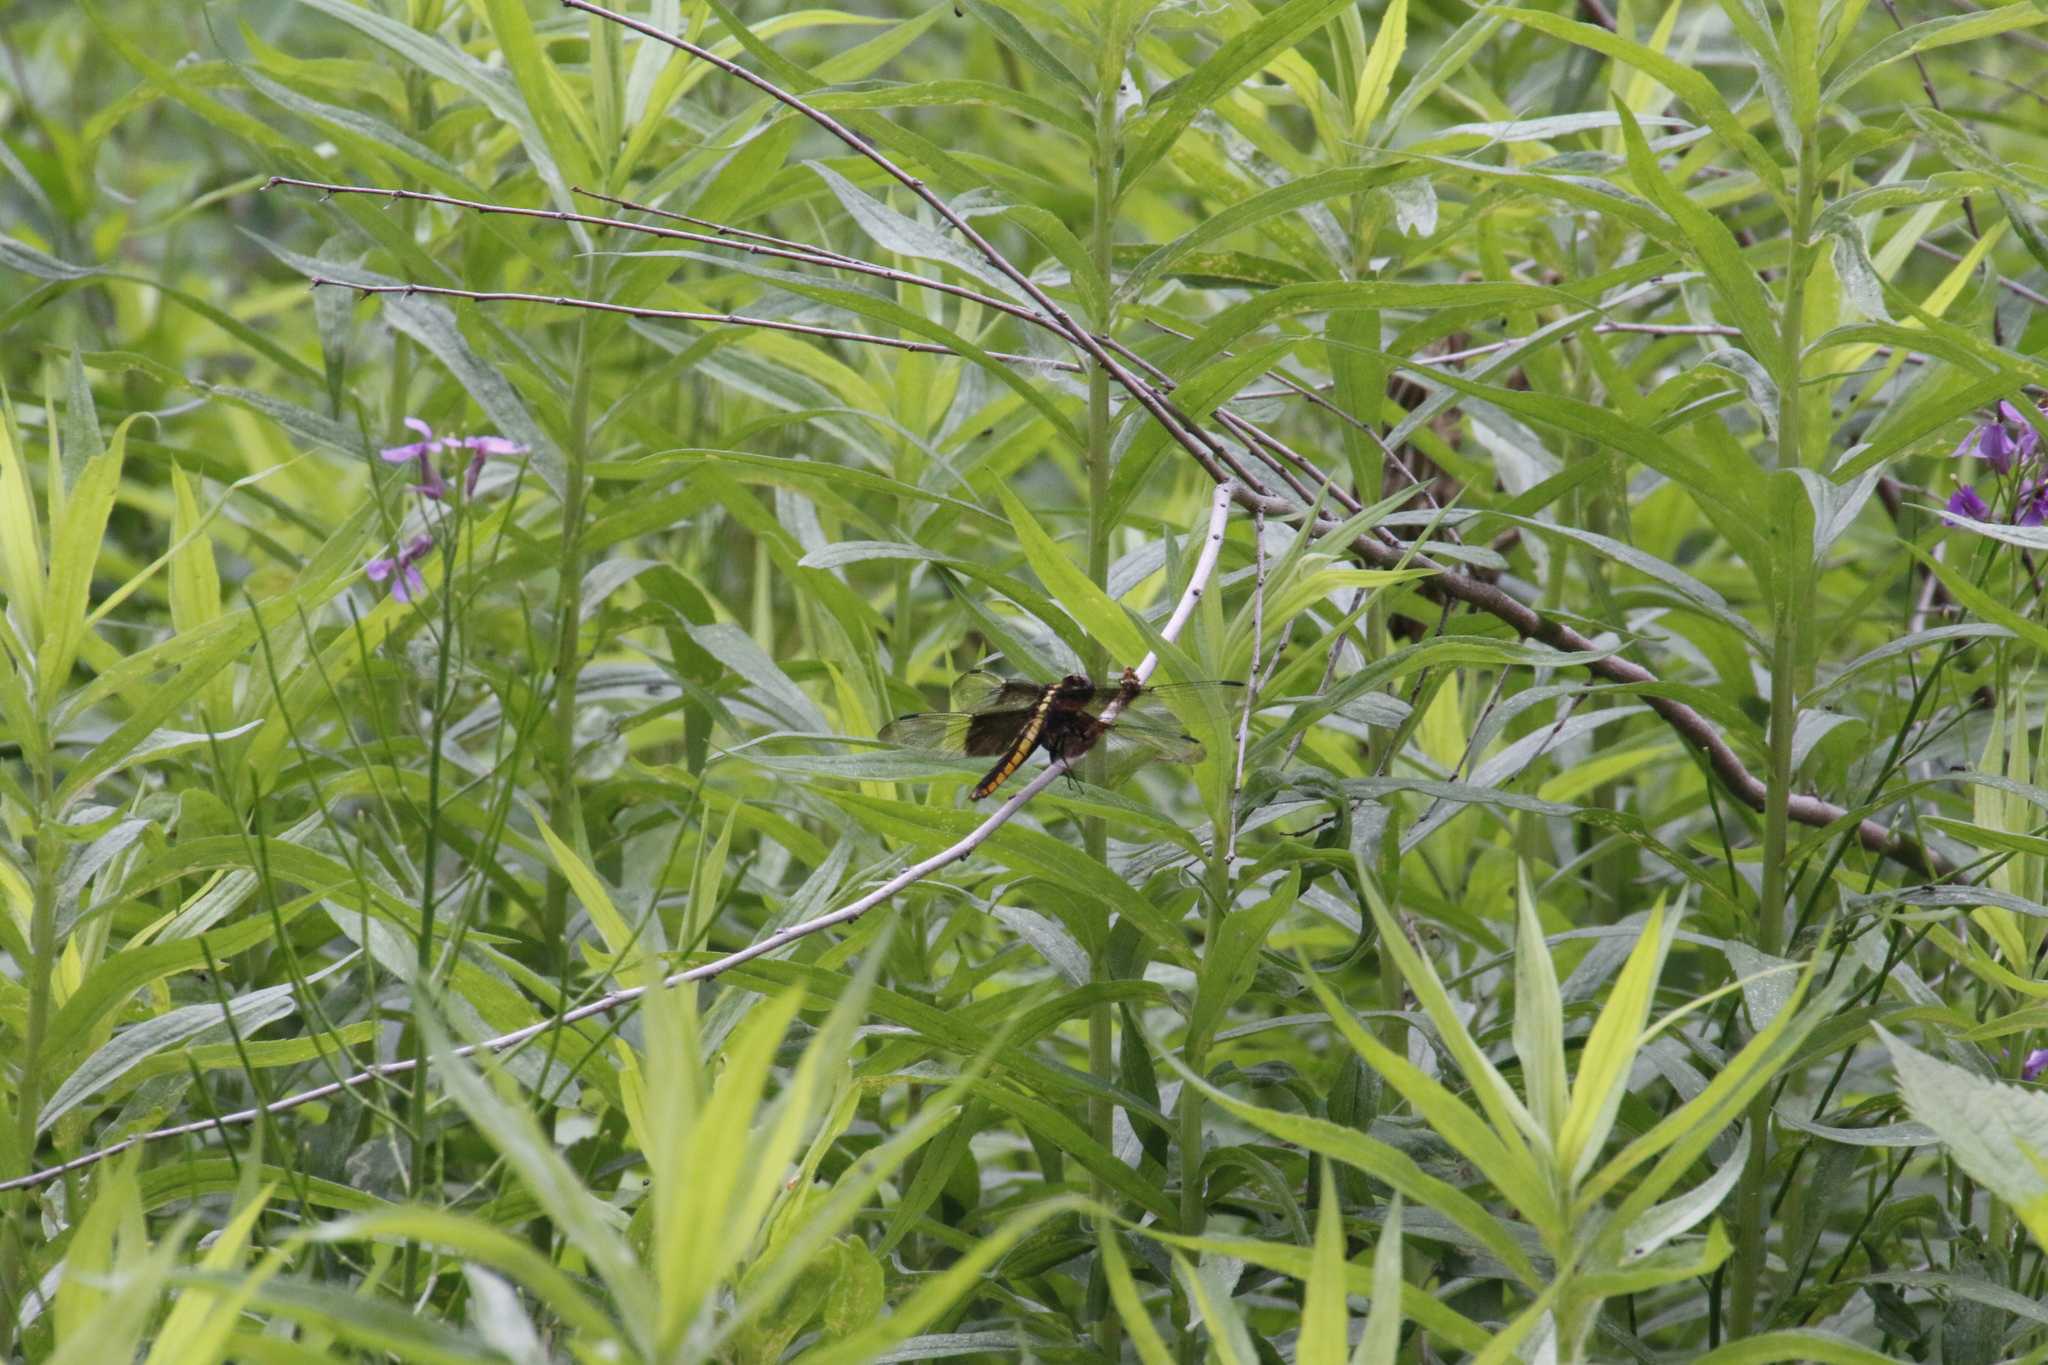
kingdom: Animalia
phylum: Arthropoda
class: Insecta
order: Odonata
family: Libellulidae
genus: Libellula
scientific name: Libellula luctuosa
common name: Widow skimmer
